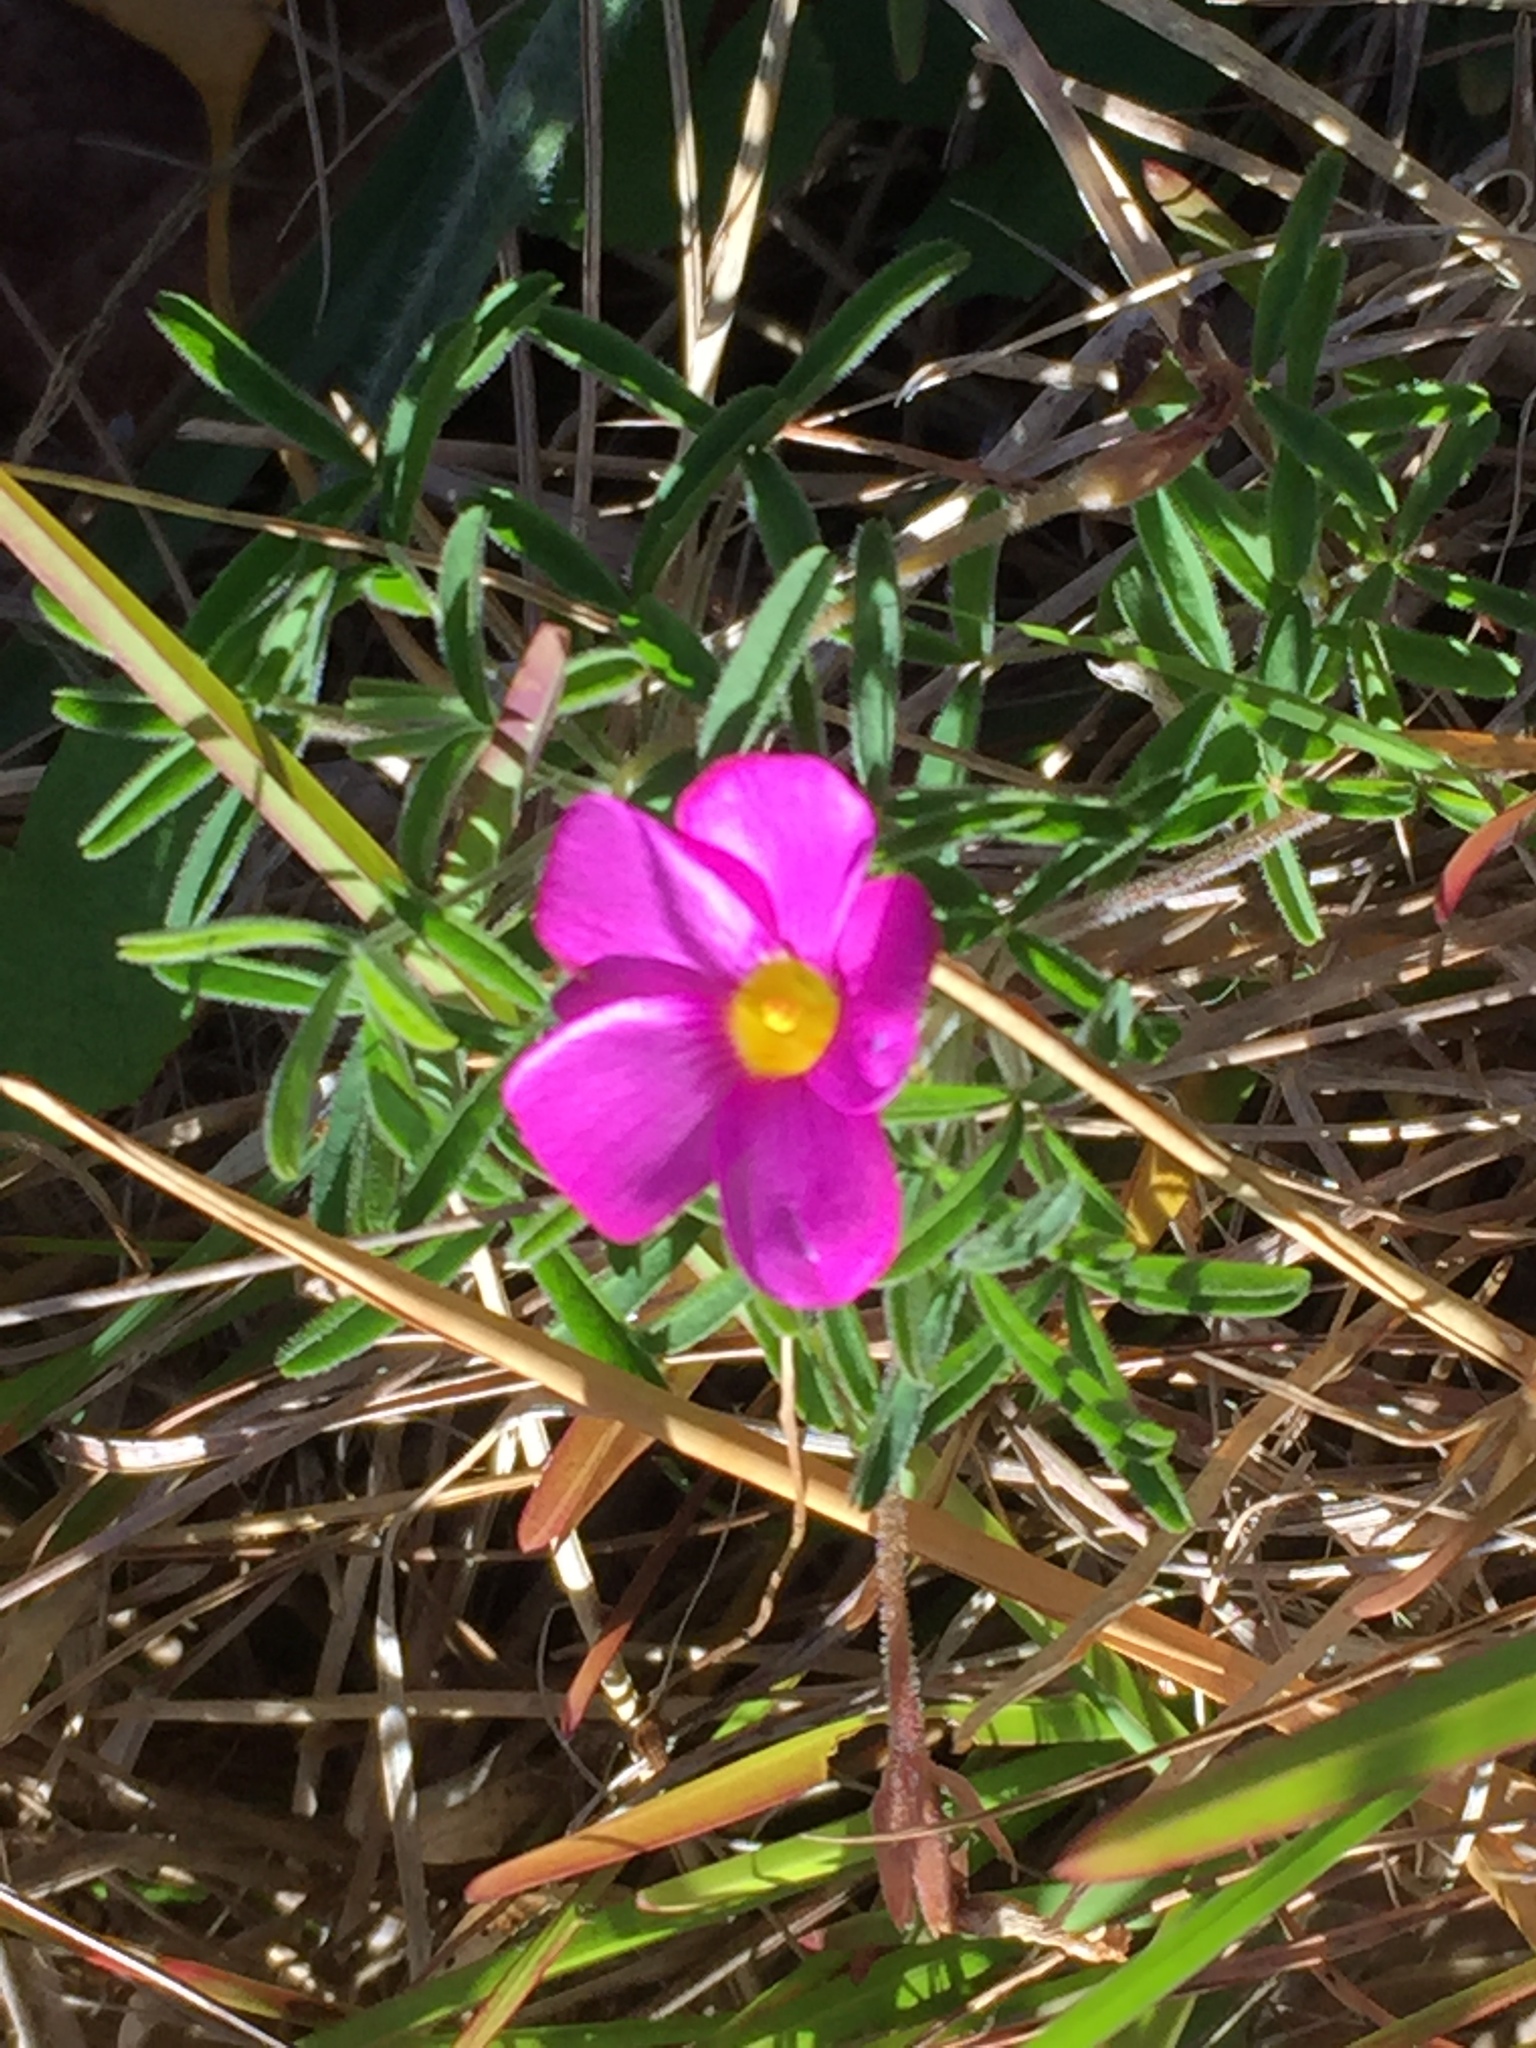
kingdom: Plantae
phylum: Tracheophyta
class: Magnoliopsida
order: Oxalidales
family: Oxalidaceae
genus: Oxalis
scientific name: Oxalis ciliaris
